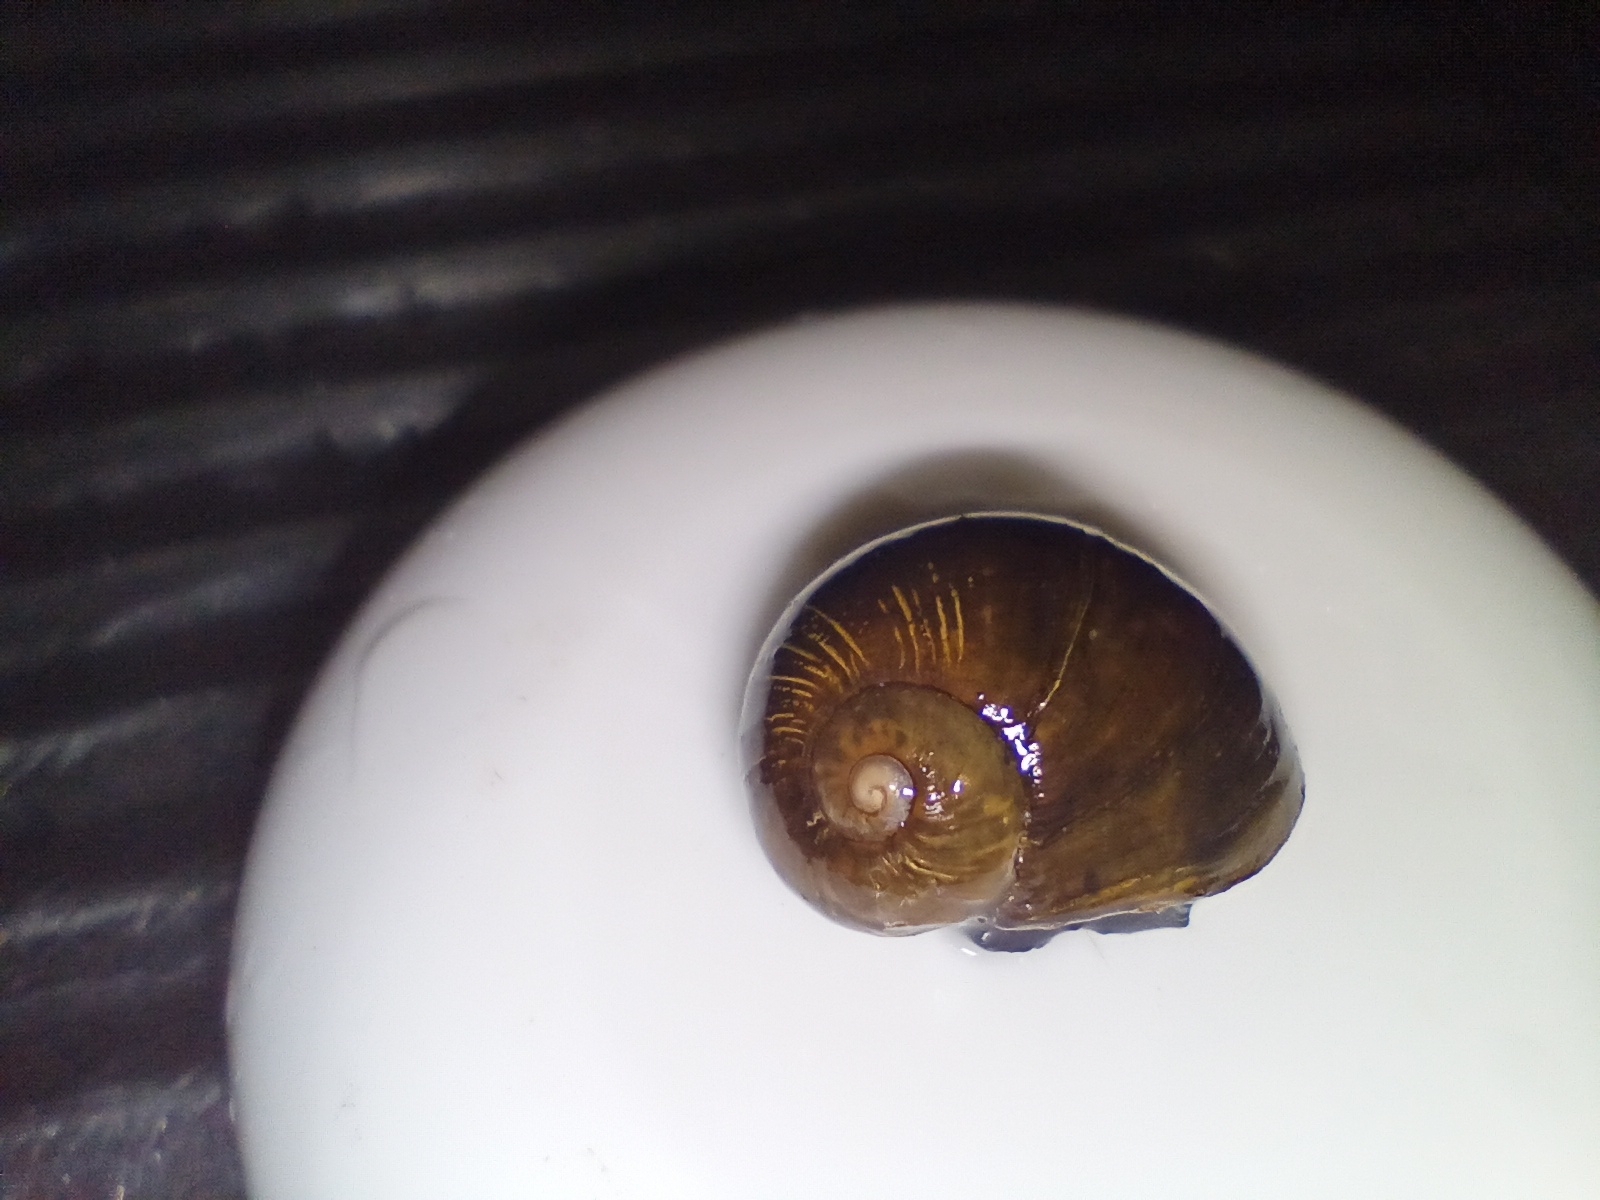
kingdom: Animalia
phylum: Mollusca
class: Gastropoda
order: Stylommatophora
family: Helicidae
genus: Cantareus
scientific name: Cantareus apertus
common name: Green gardensnail
